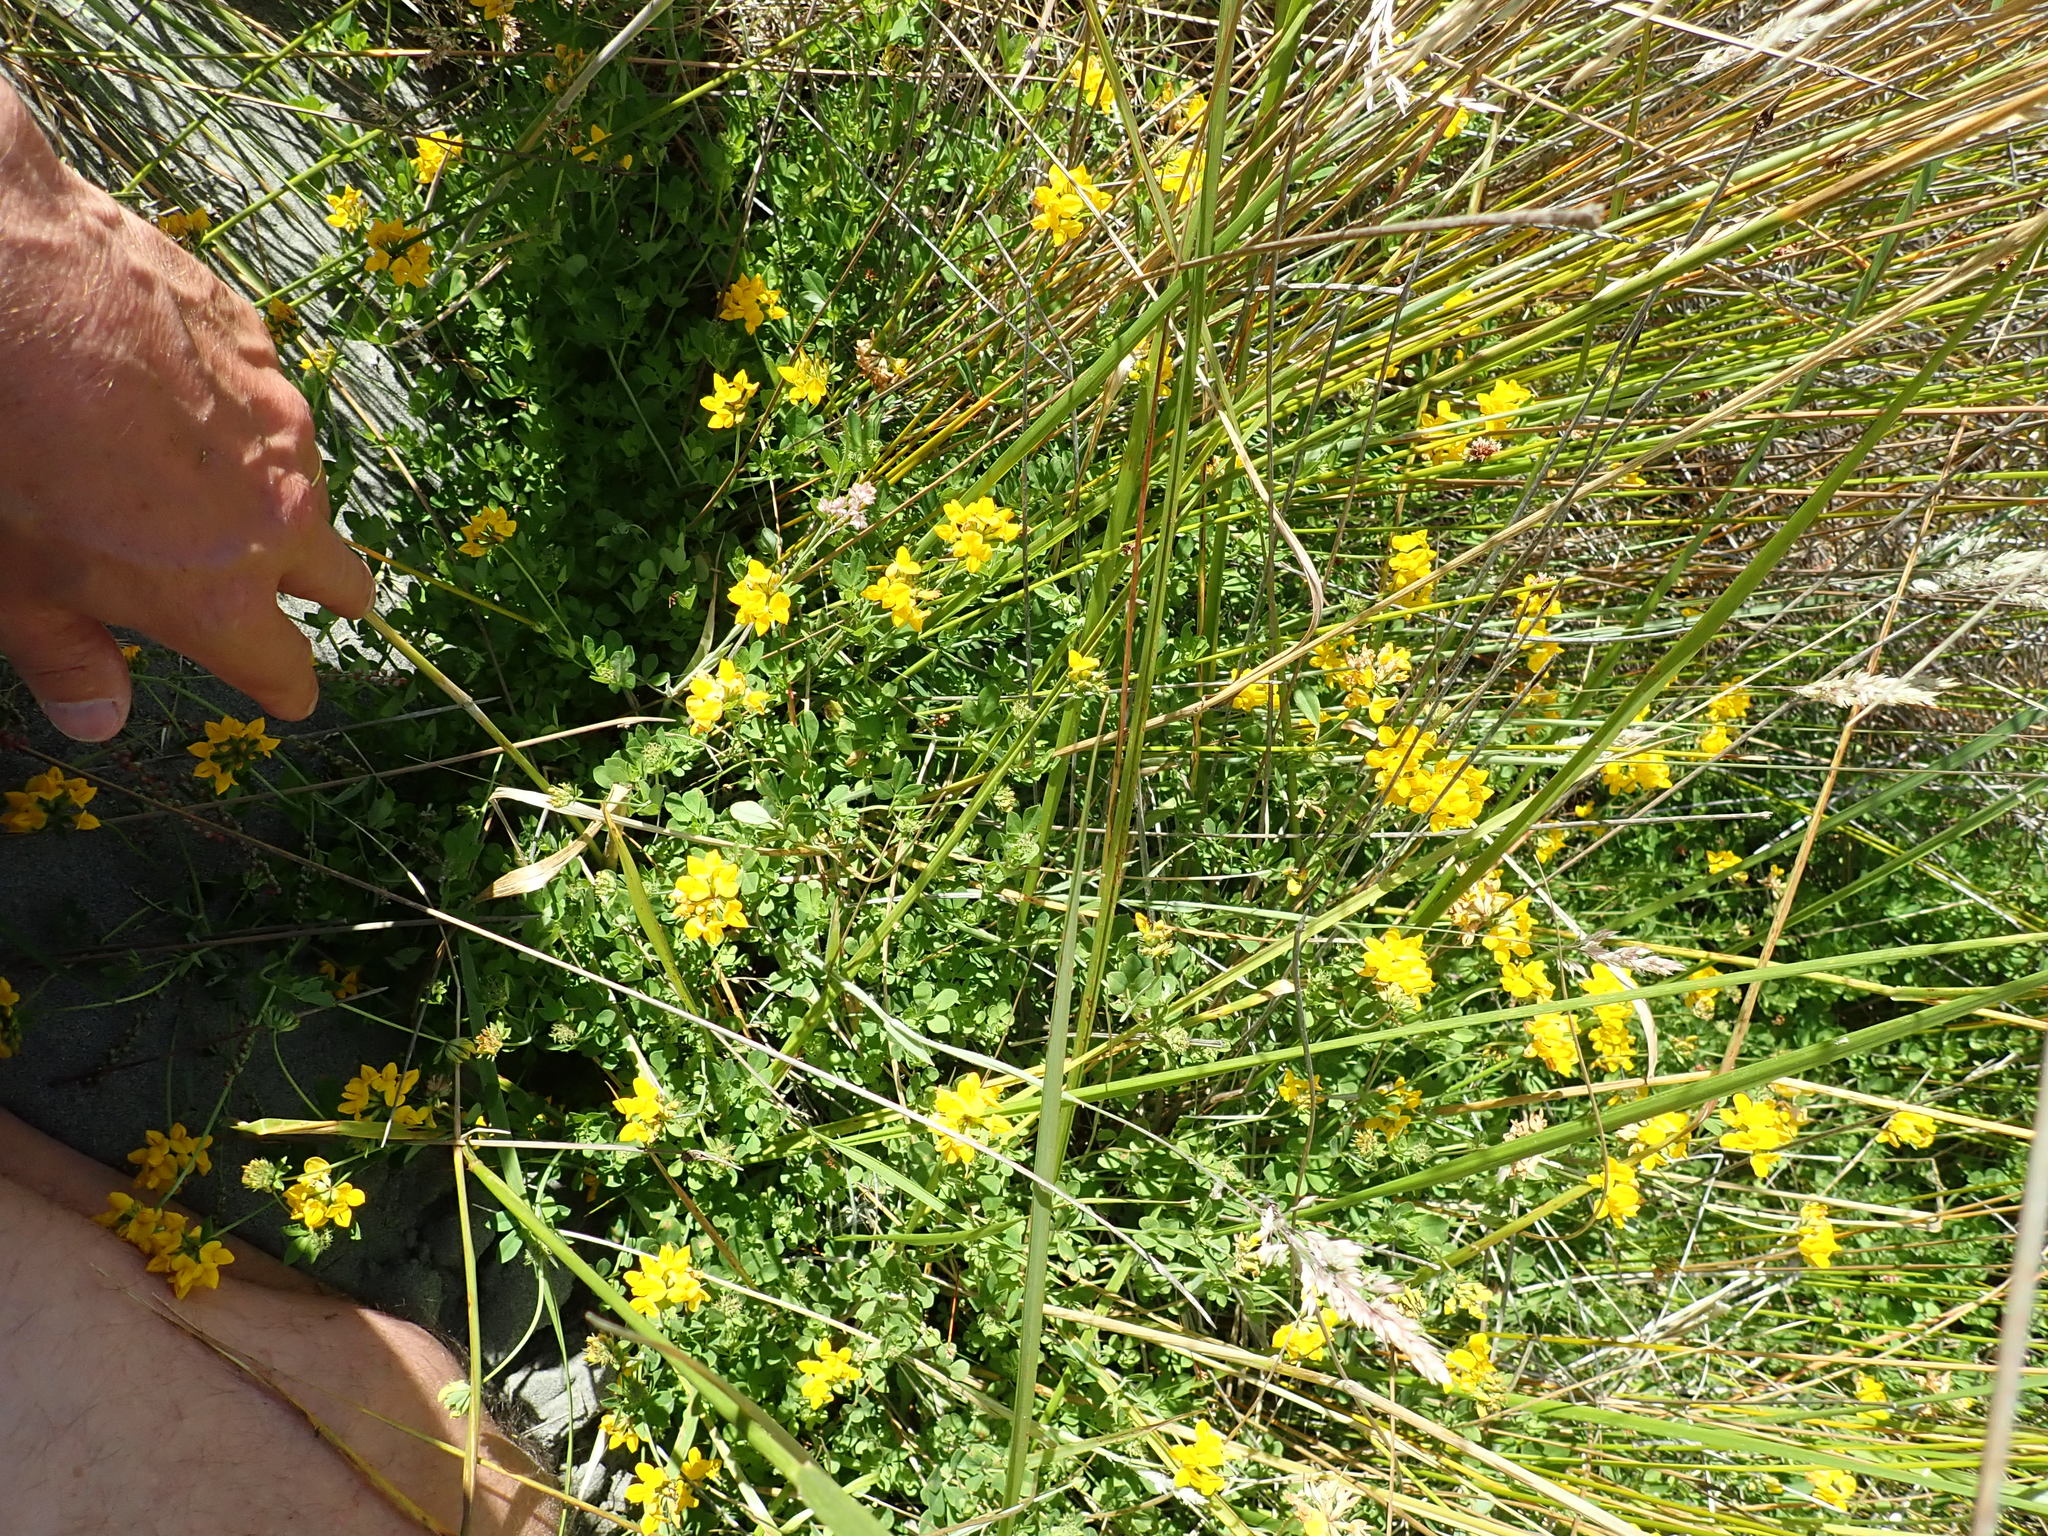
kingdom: Plantae
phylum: Tracheophyta
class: Magnoliopsida
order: Fabales
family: Fabaceae
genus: Lotus
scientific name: Lotus pedunculatus
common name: Greater birdsfoot-trefoil
